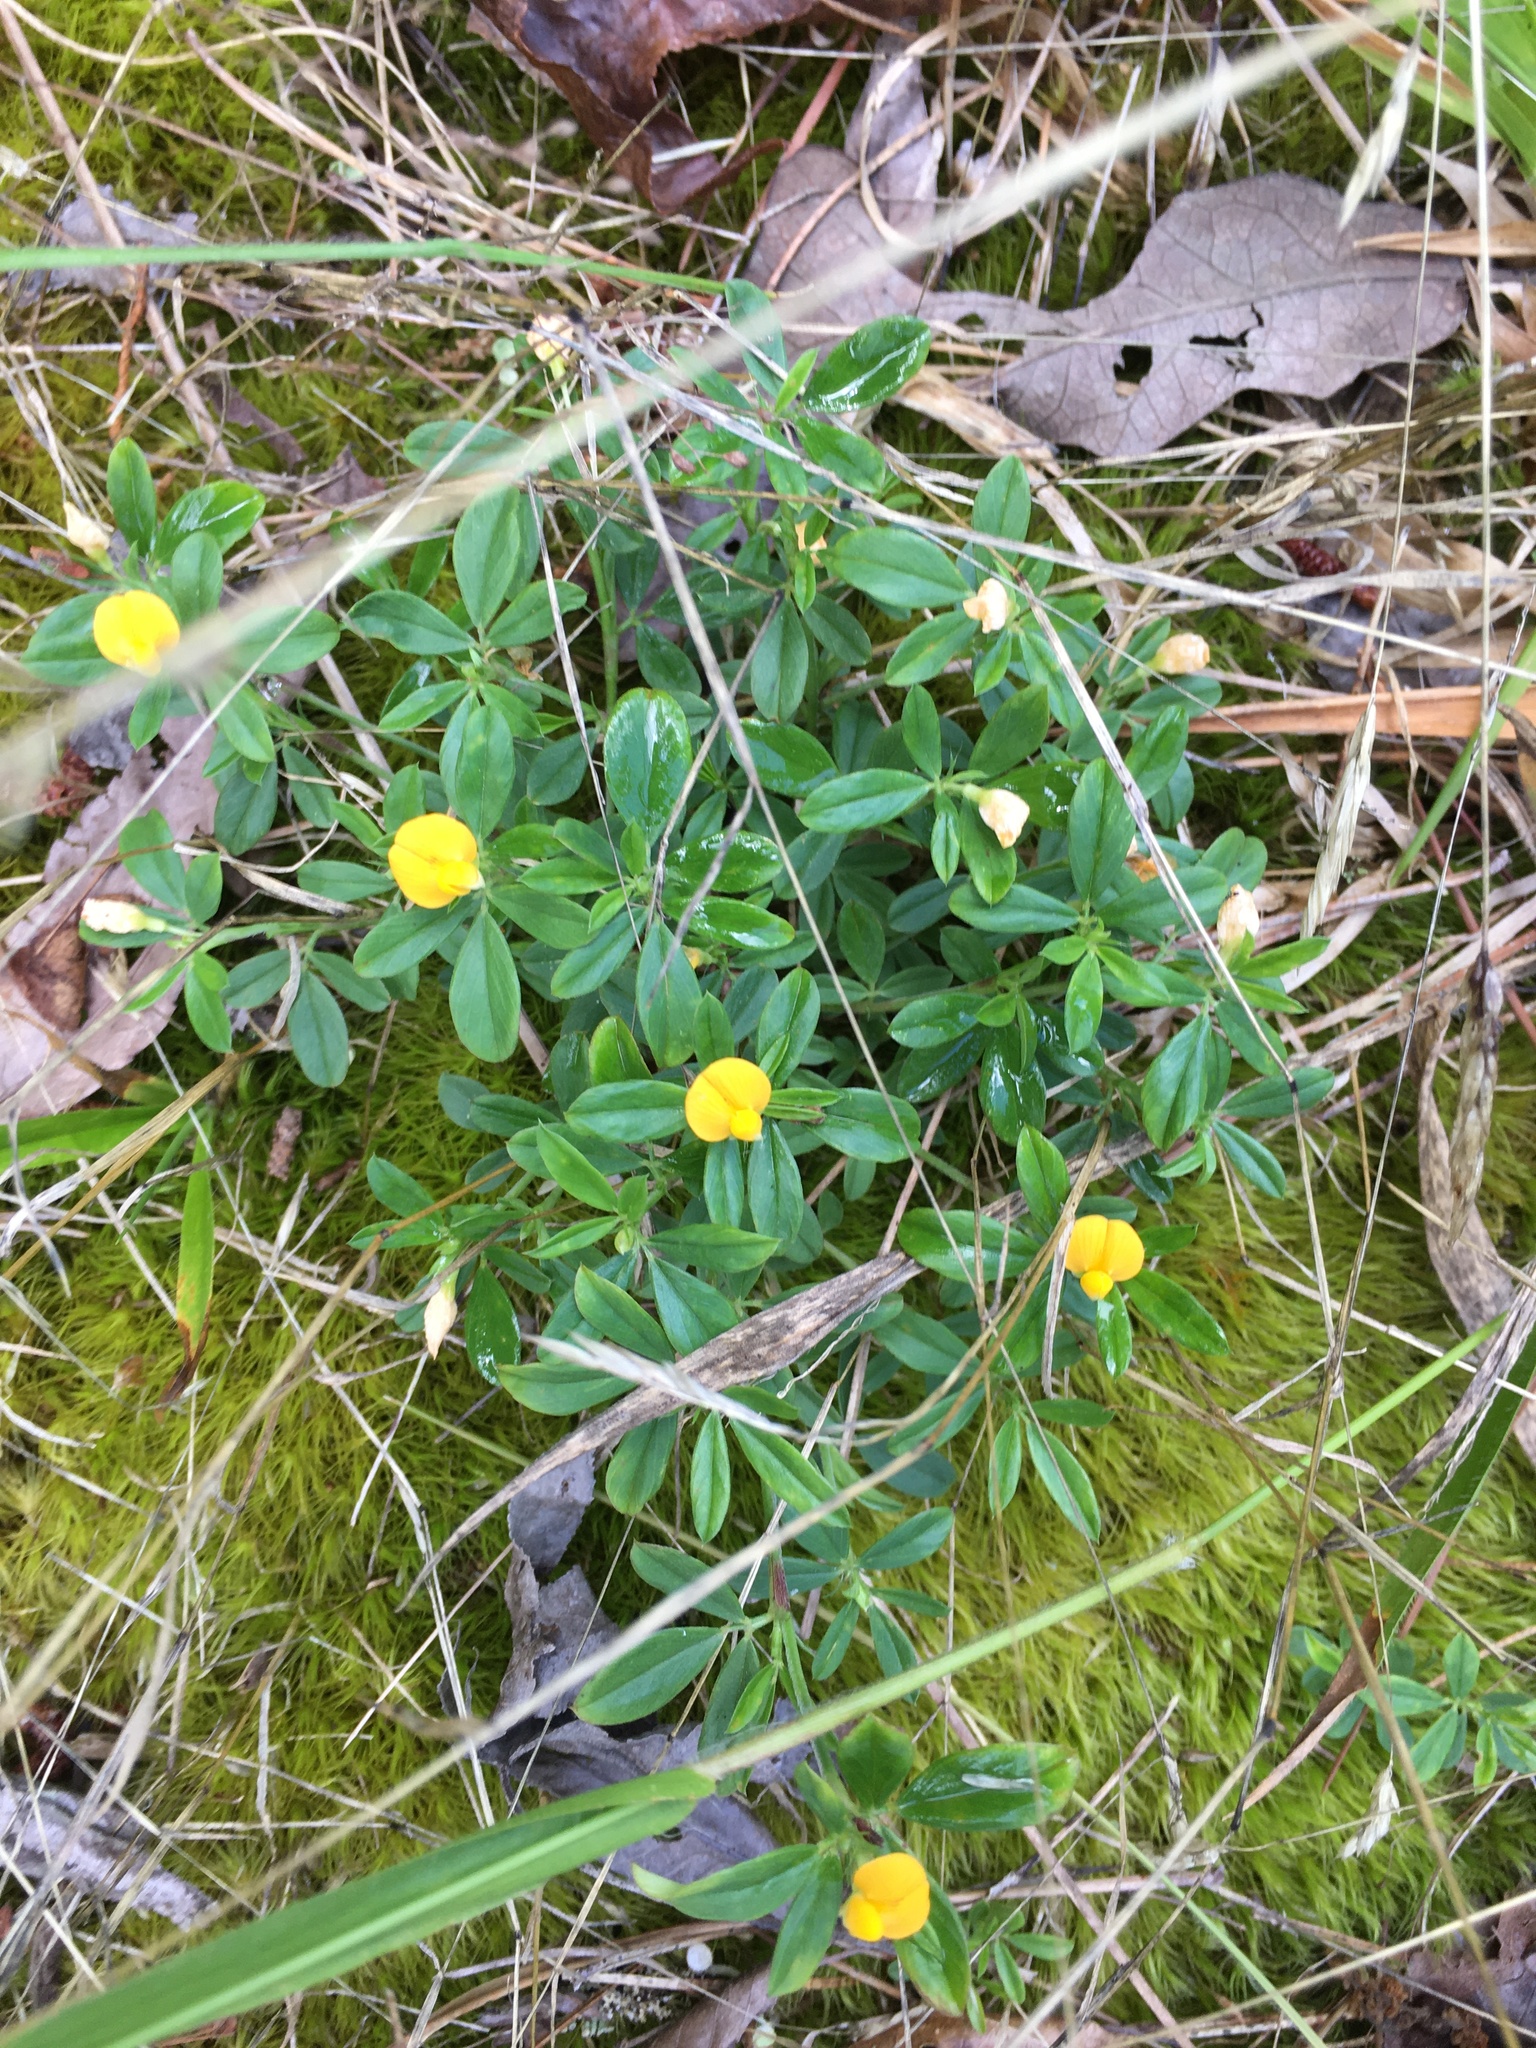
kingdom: Plantae
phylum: Tracheophyta
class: Magnoliopsida
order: Fabales
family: Fabaceae
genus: Stylosanthes
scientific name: Stylosanthes biflora
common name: Two-flower pencil-flower
